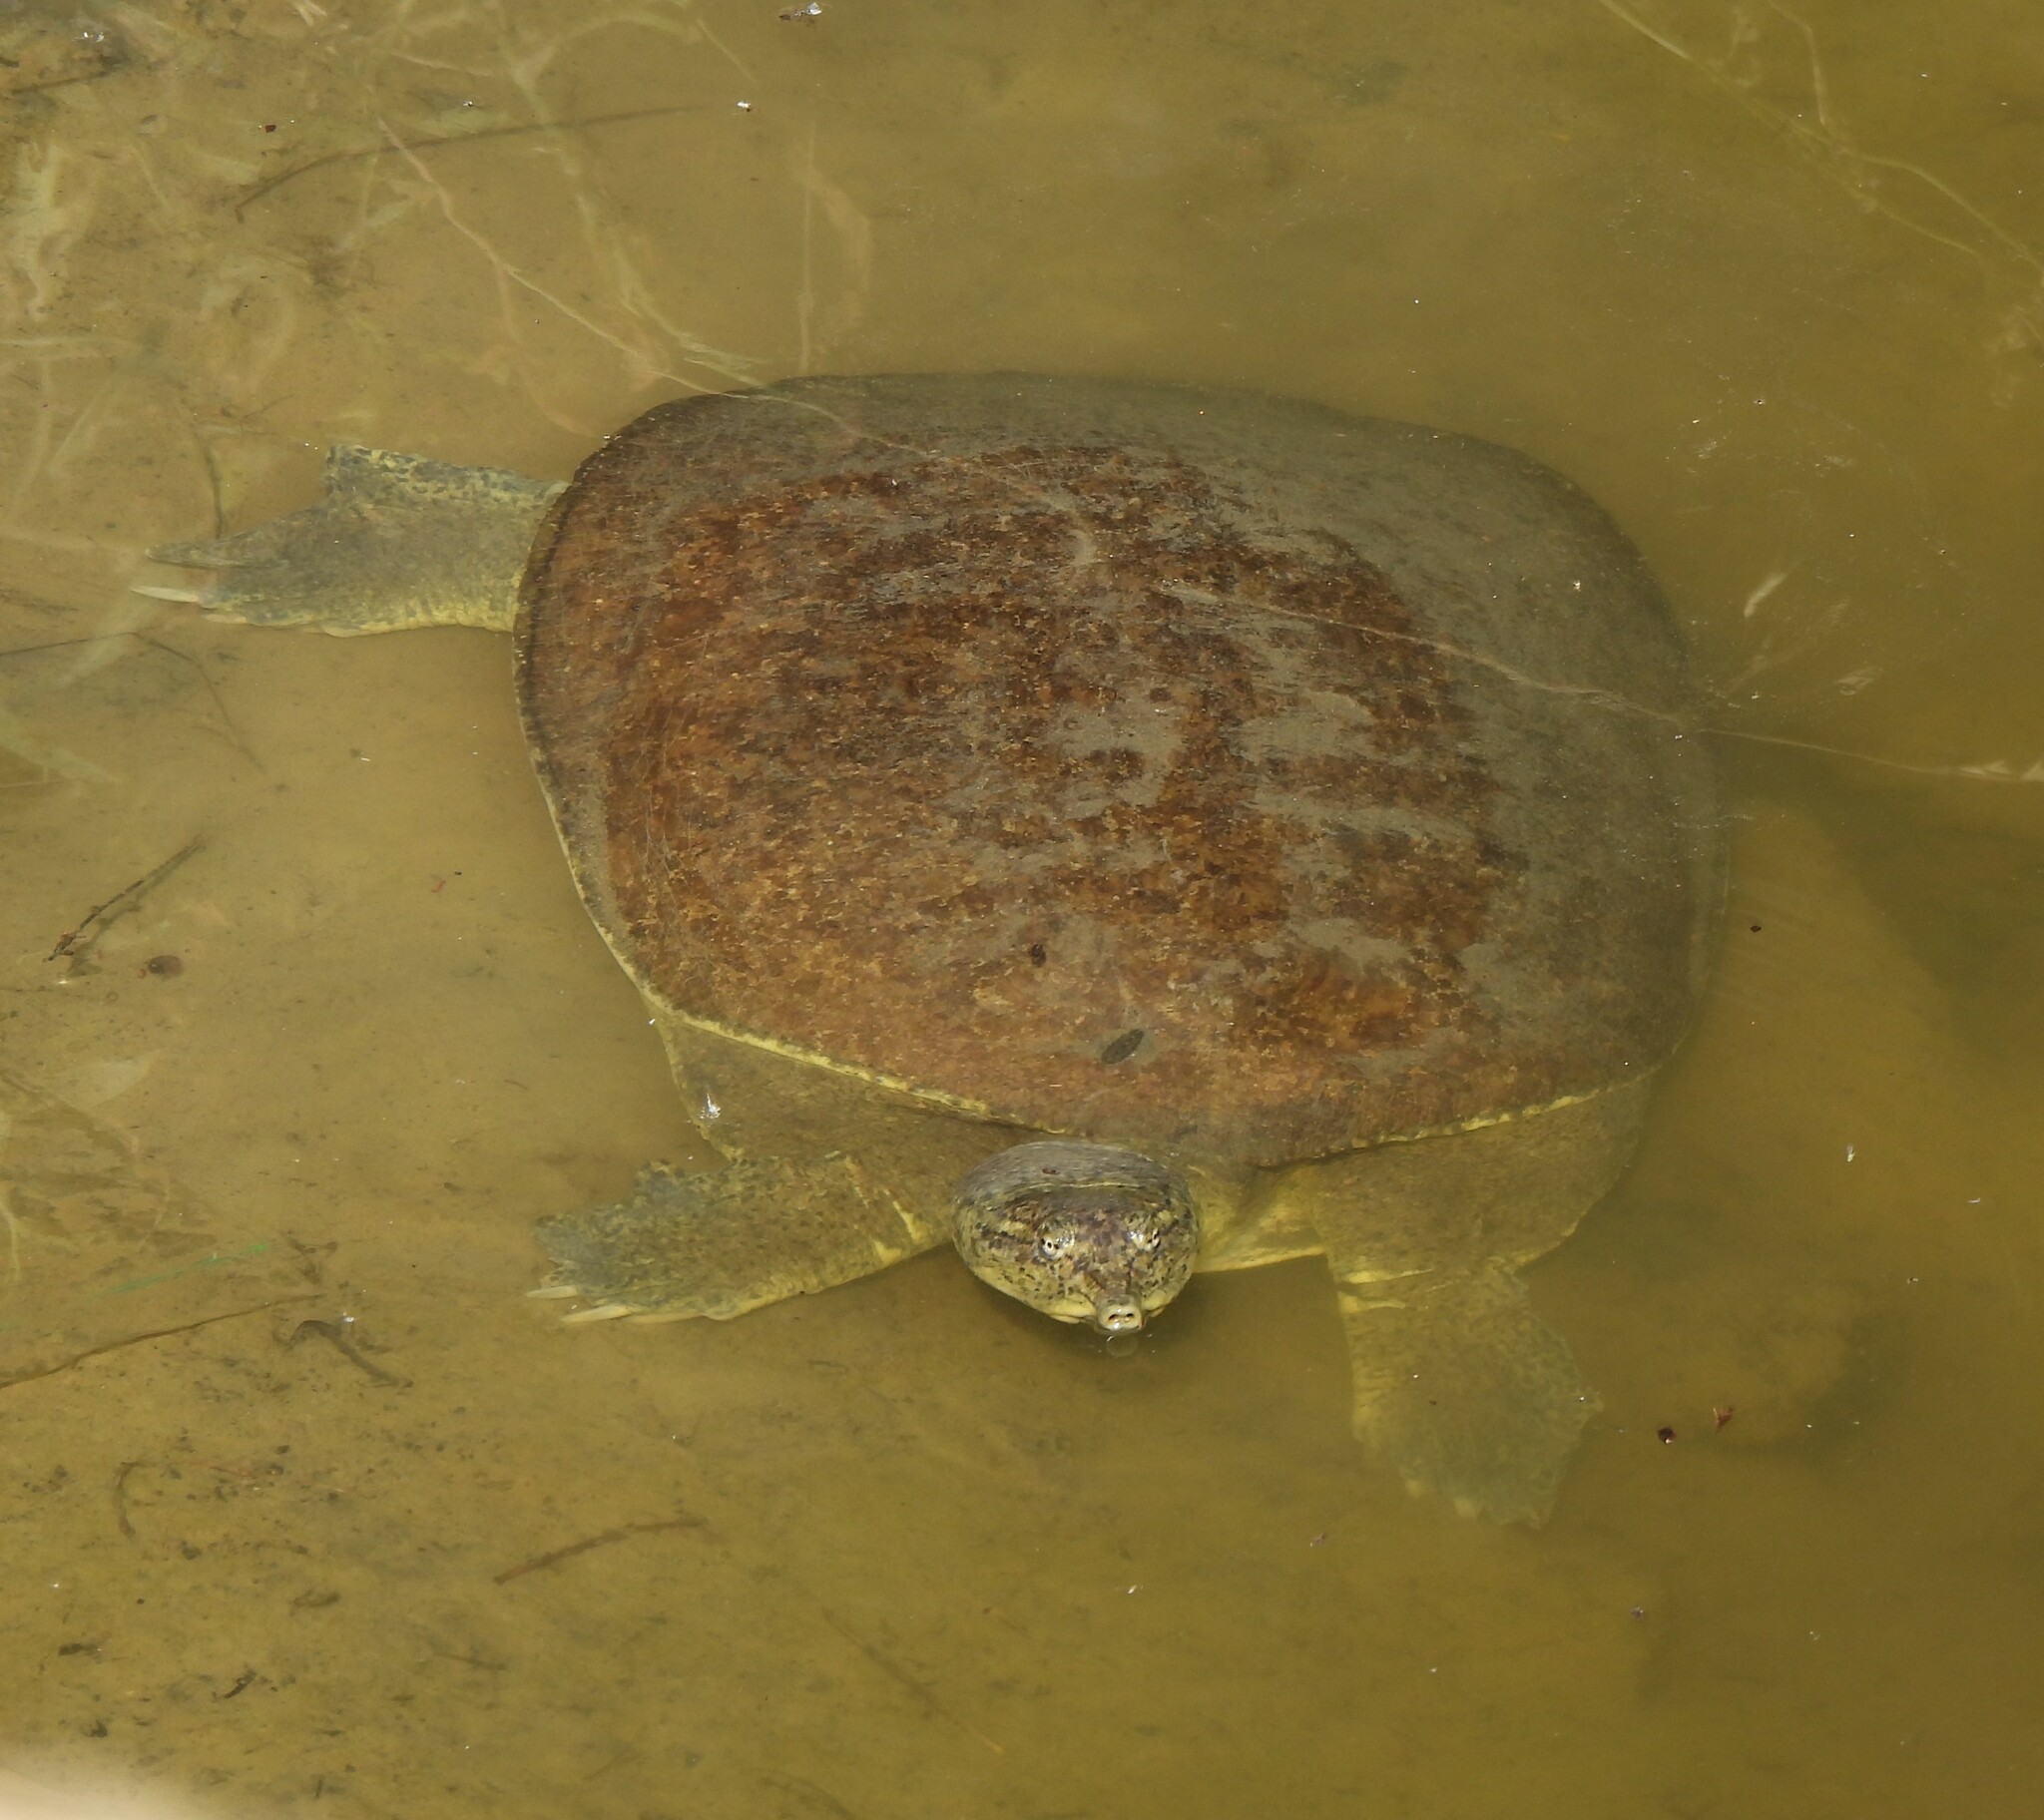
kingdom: Animalia
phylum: Chordata
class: Testudines
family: Trionychidae
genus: Apalone
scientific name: Apalone spinifera
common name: Spiny softshell turtle
